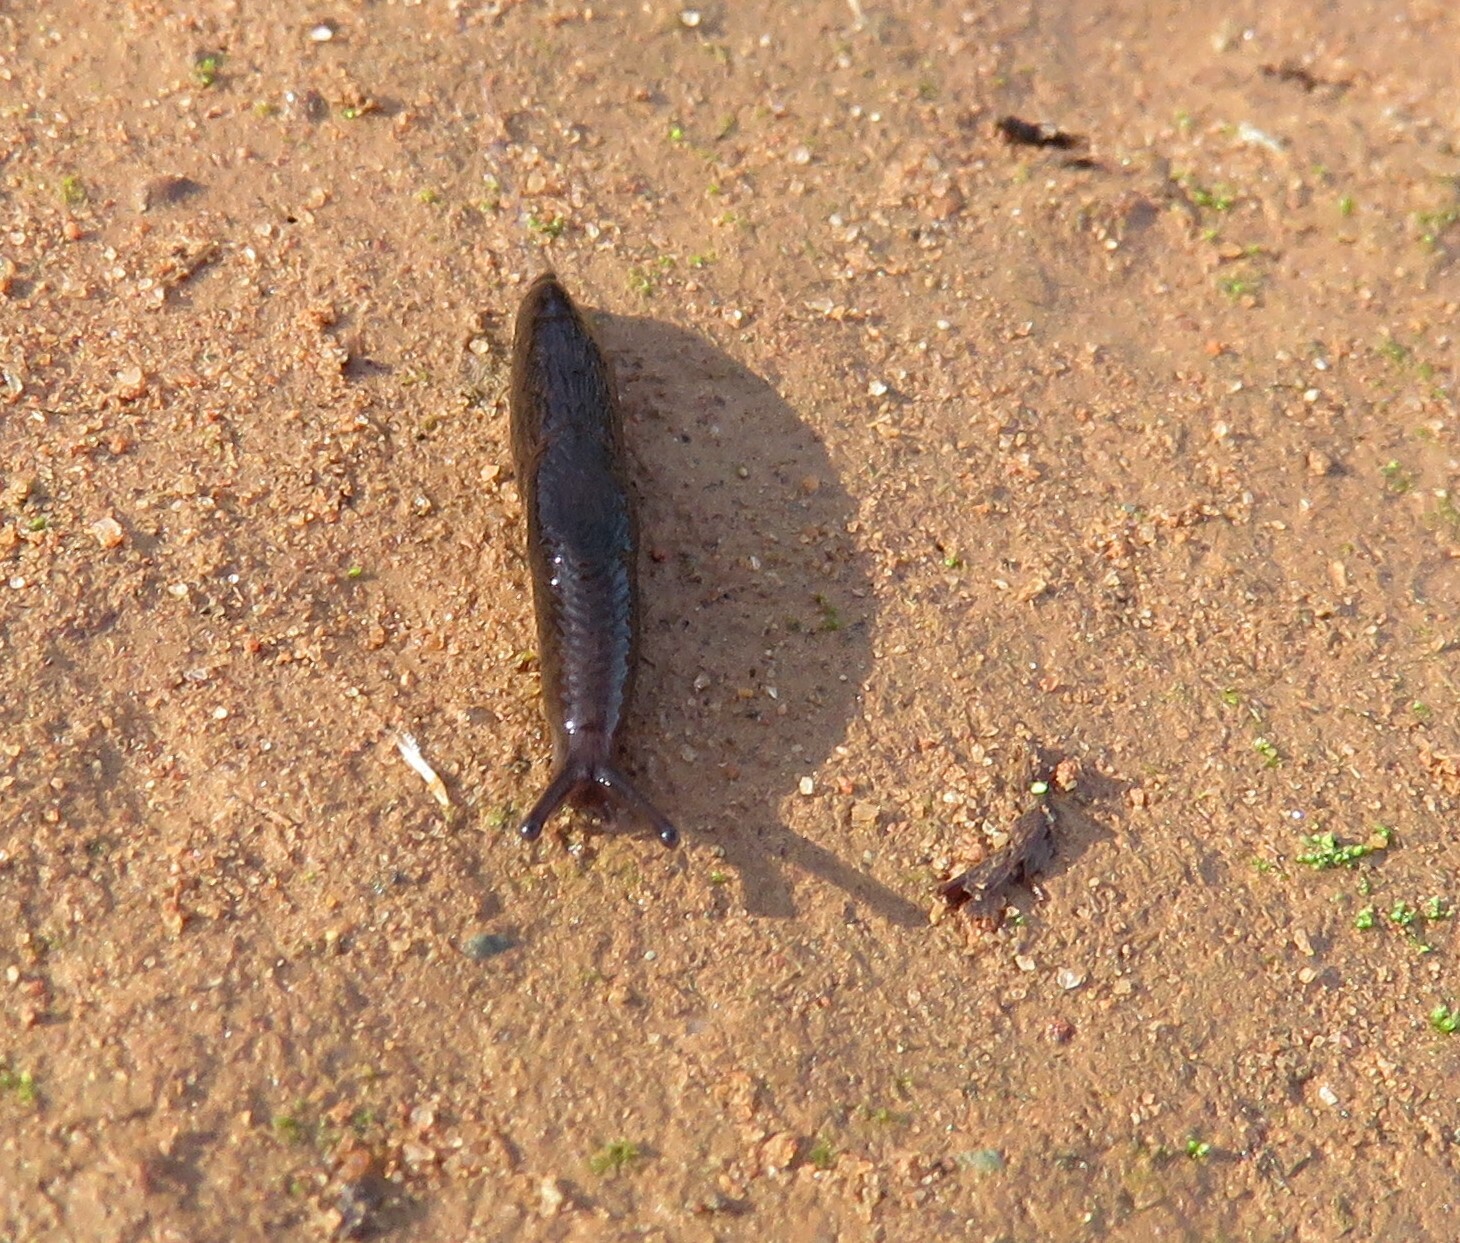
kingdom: Animalia
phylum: Mollusca
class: Gastropoda
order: Stylommatophora
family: Agriolimacidae
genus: Deroceras
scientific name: Deroceras laeve
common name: Marsh slug
